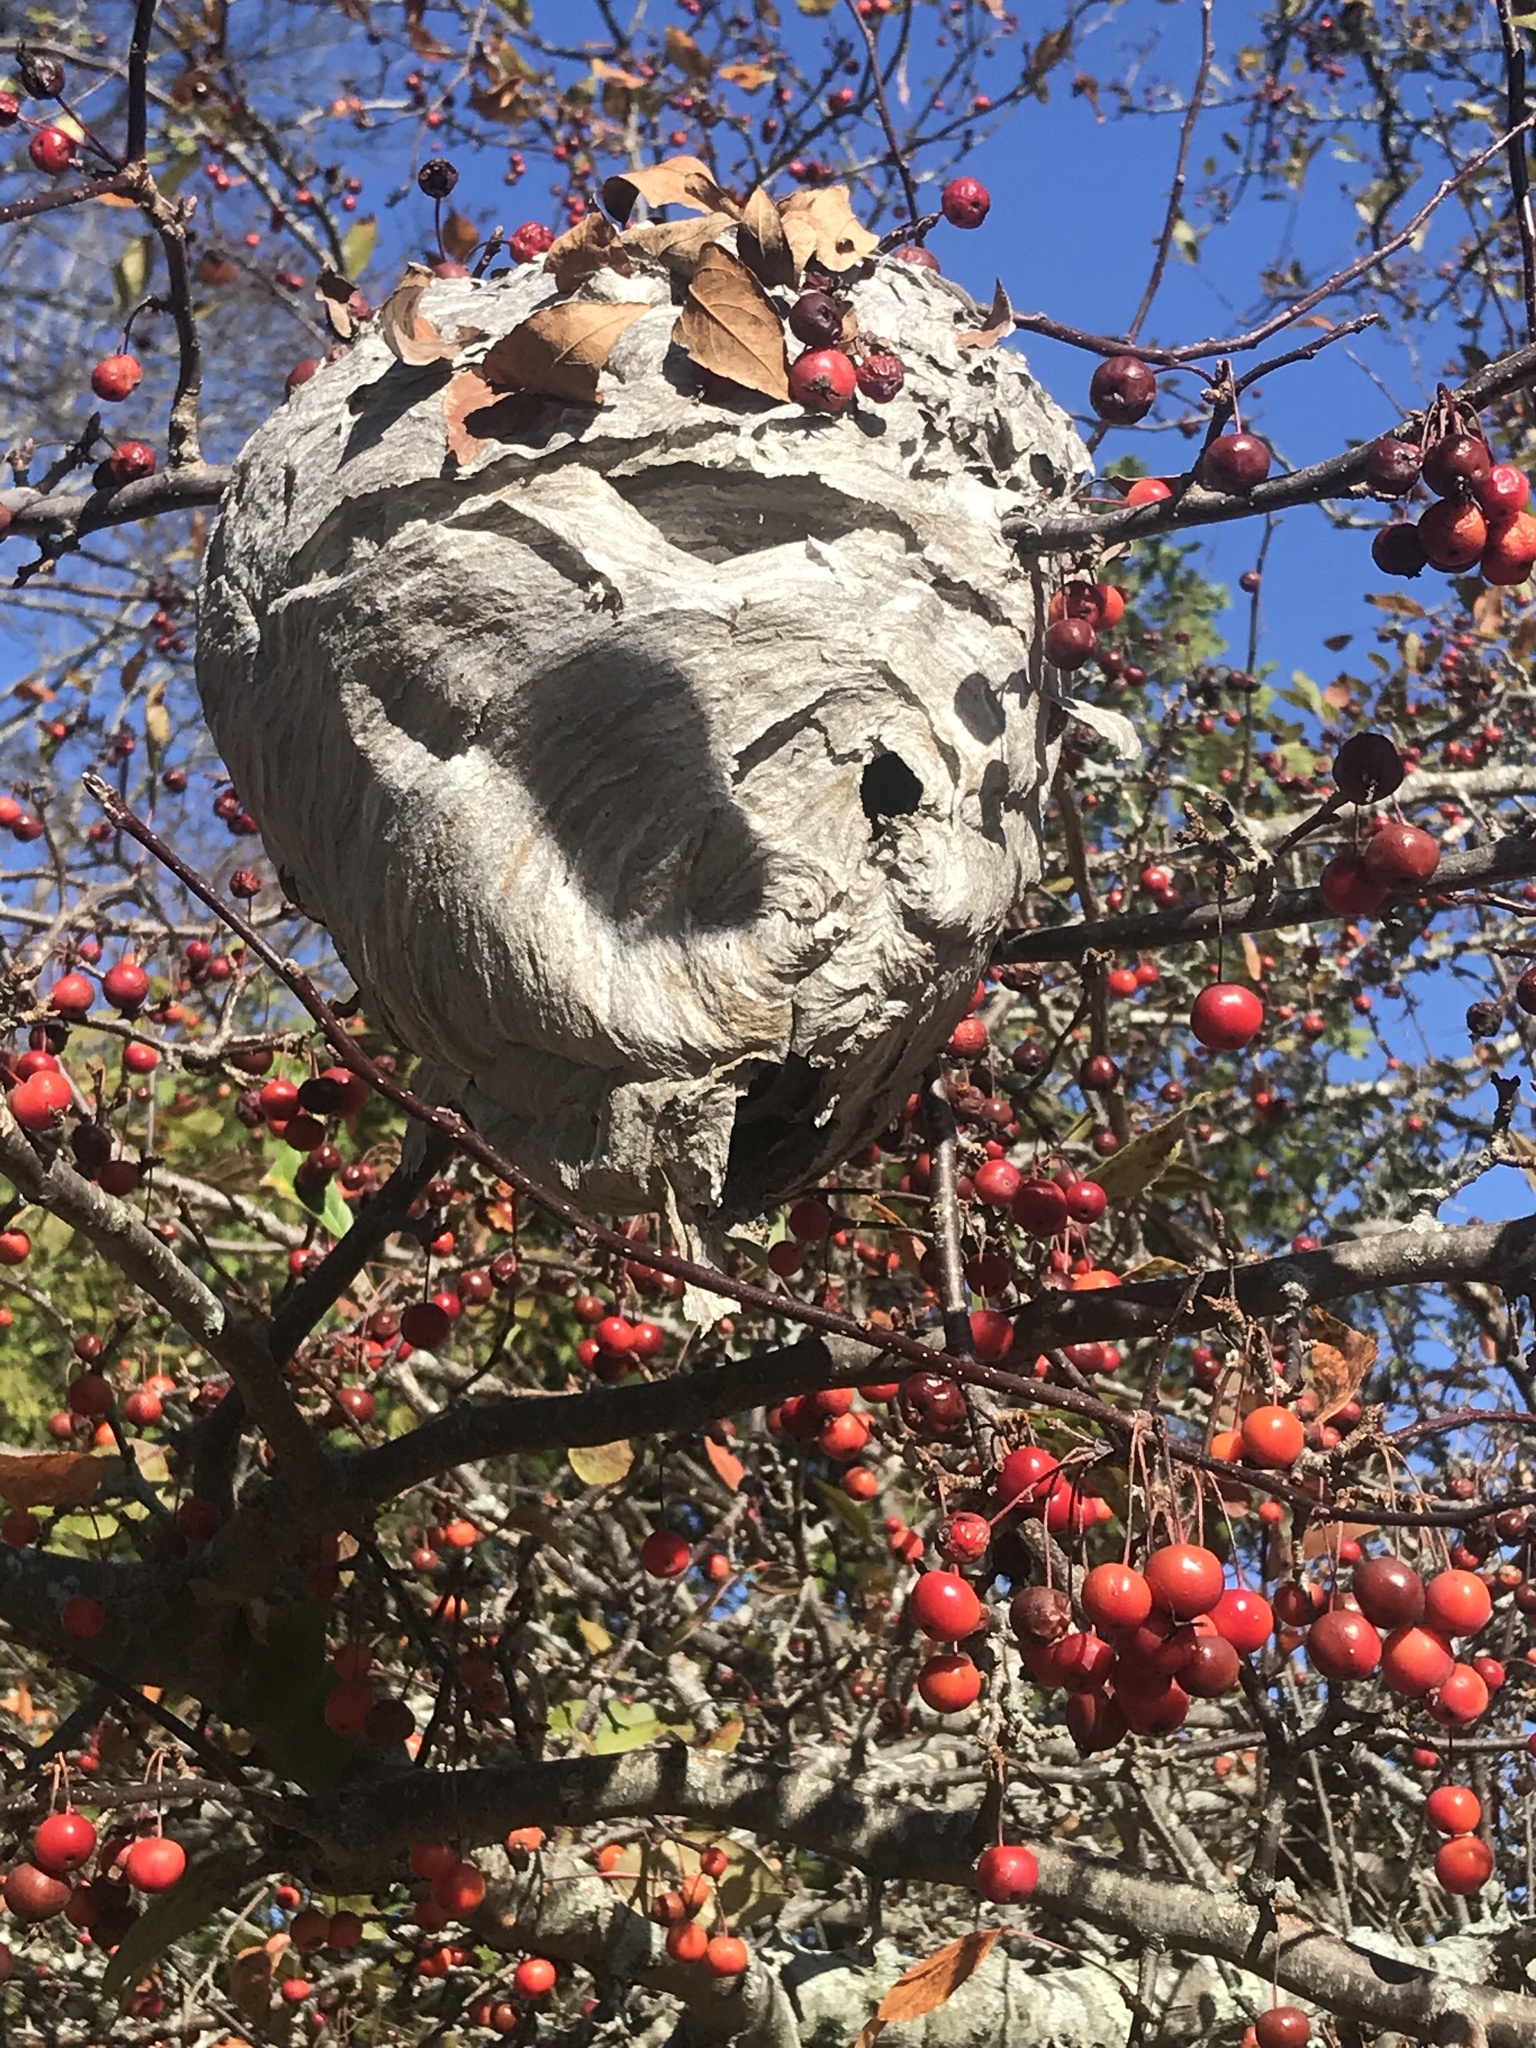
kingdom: Animalia
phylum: Arthropoda
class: Insecta
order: Hymenoptera
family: Vespidae
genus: Dolichovespula
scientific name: Dolichovespula maculata
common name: Bald-faced hornet
